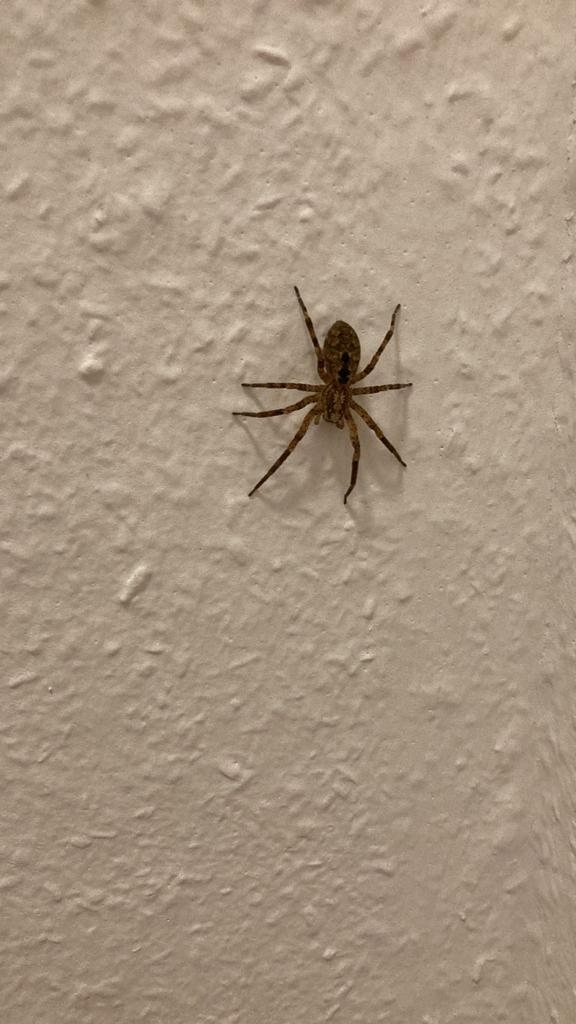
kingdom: Animalia
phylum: Arthropoda
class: Arachnida
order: Araneae
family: Zoropsidae
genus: Zoropsis
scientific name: Zoropsis spinimana
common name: Zoropsid spider
